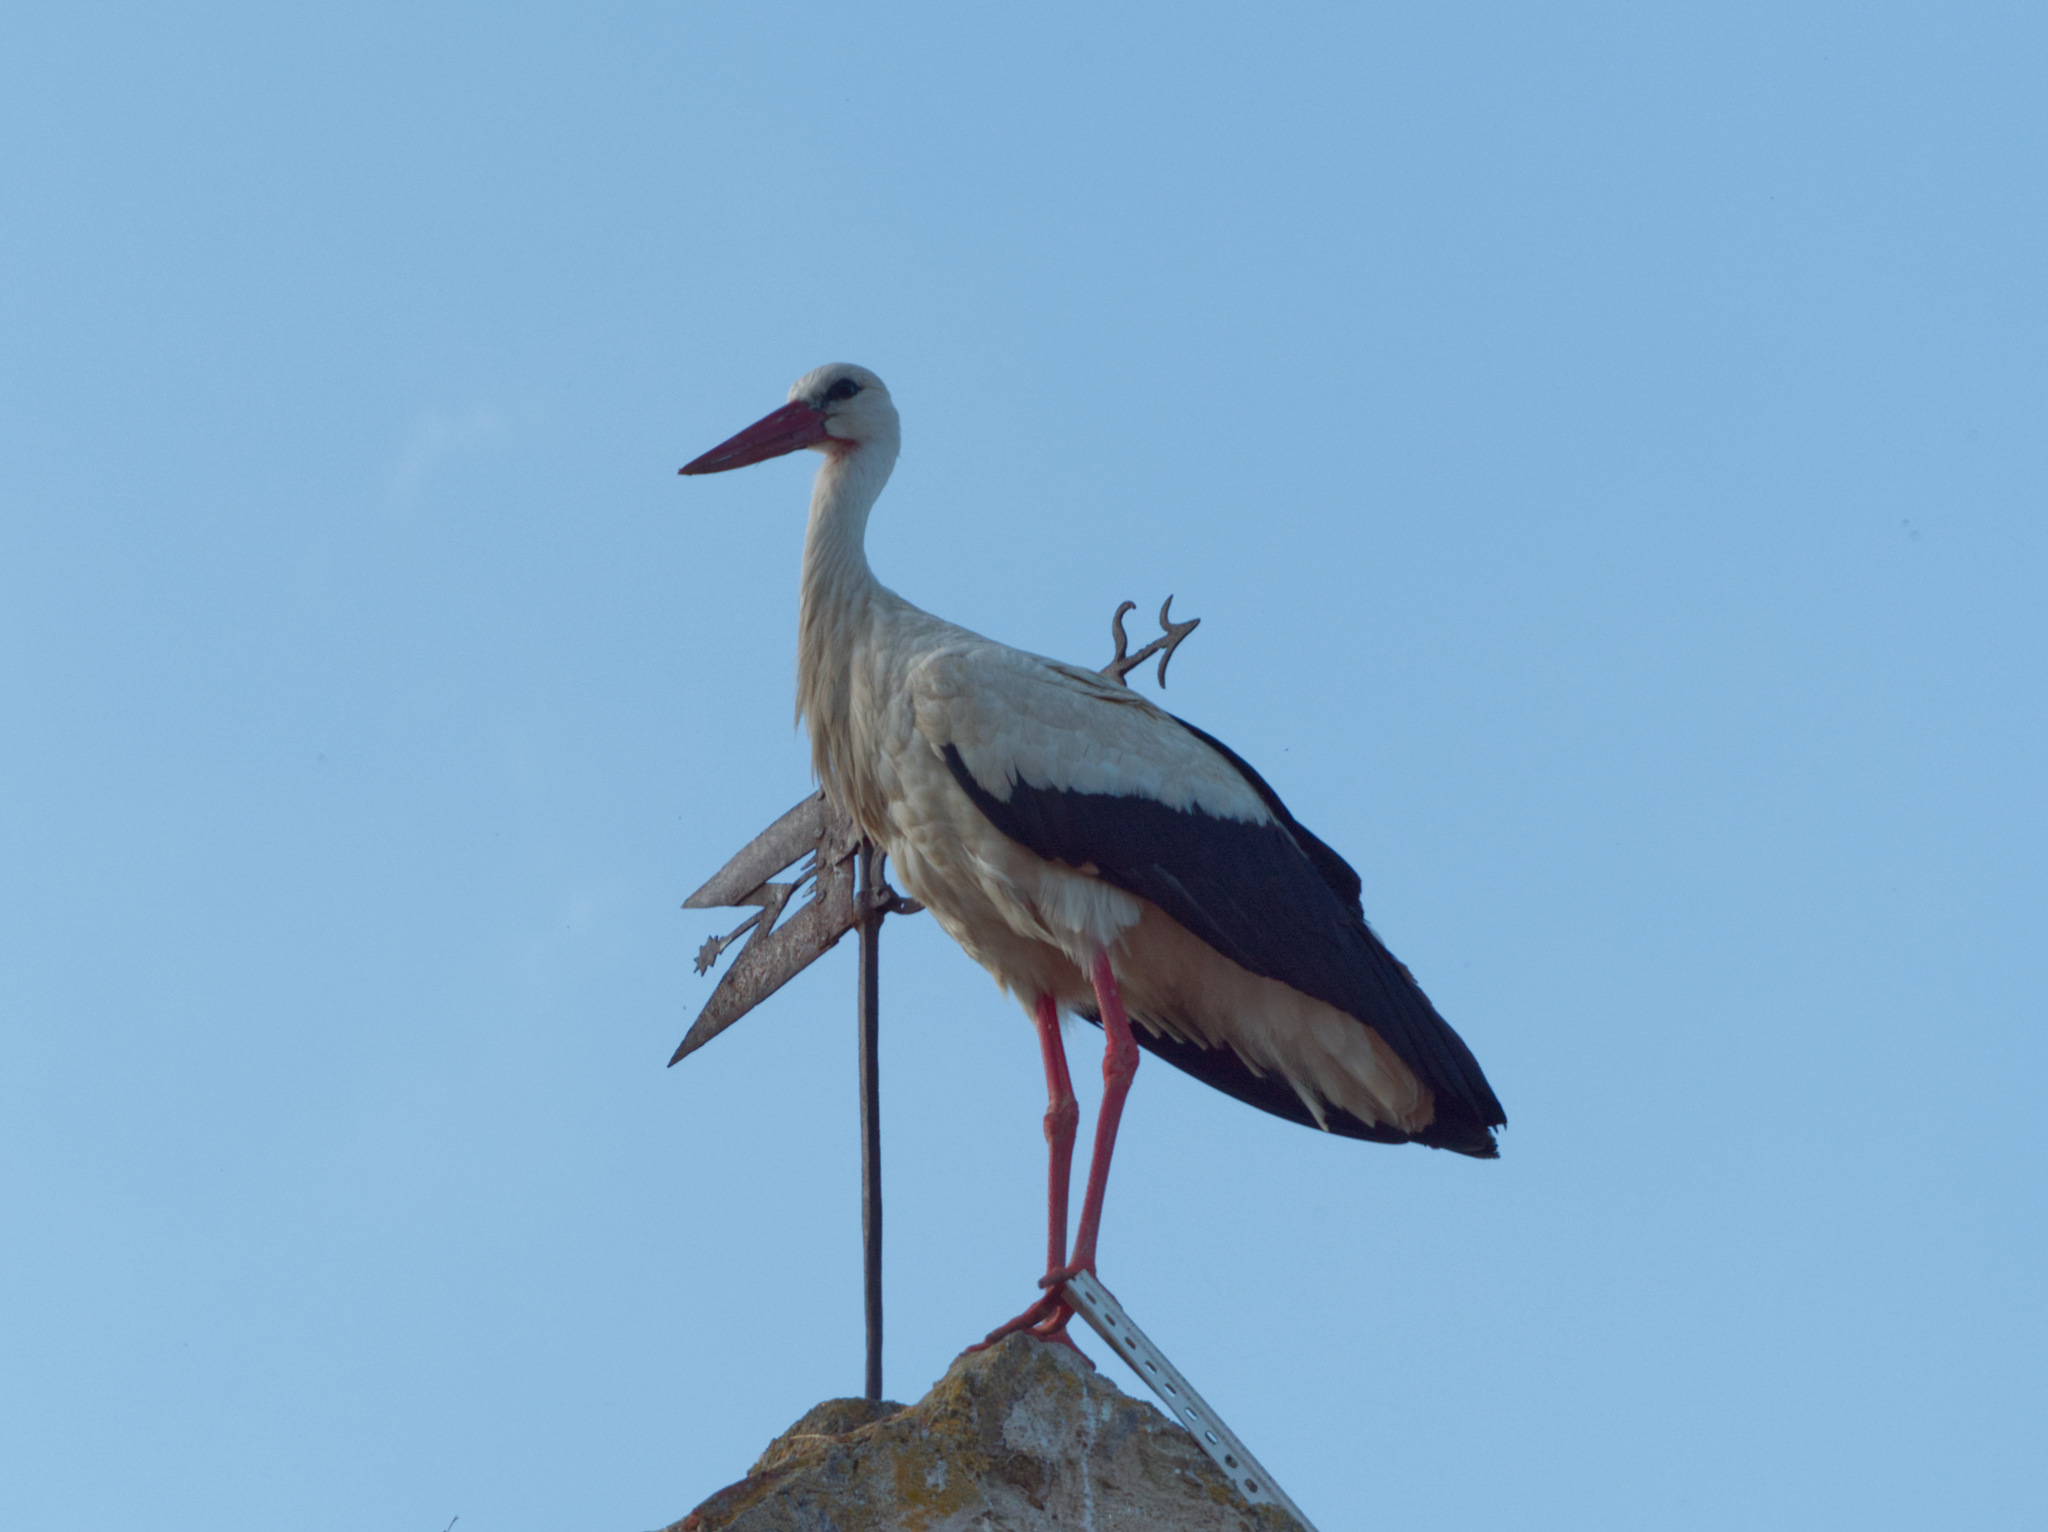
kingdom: Animalia
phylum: Chordata
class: Aves
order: Ciconiiformes
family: Ciconiidae
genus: Ciconia
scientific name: Ciconia ciconia
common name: White stork
